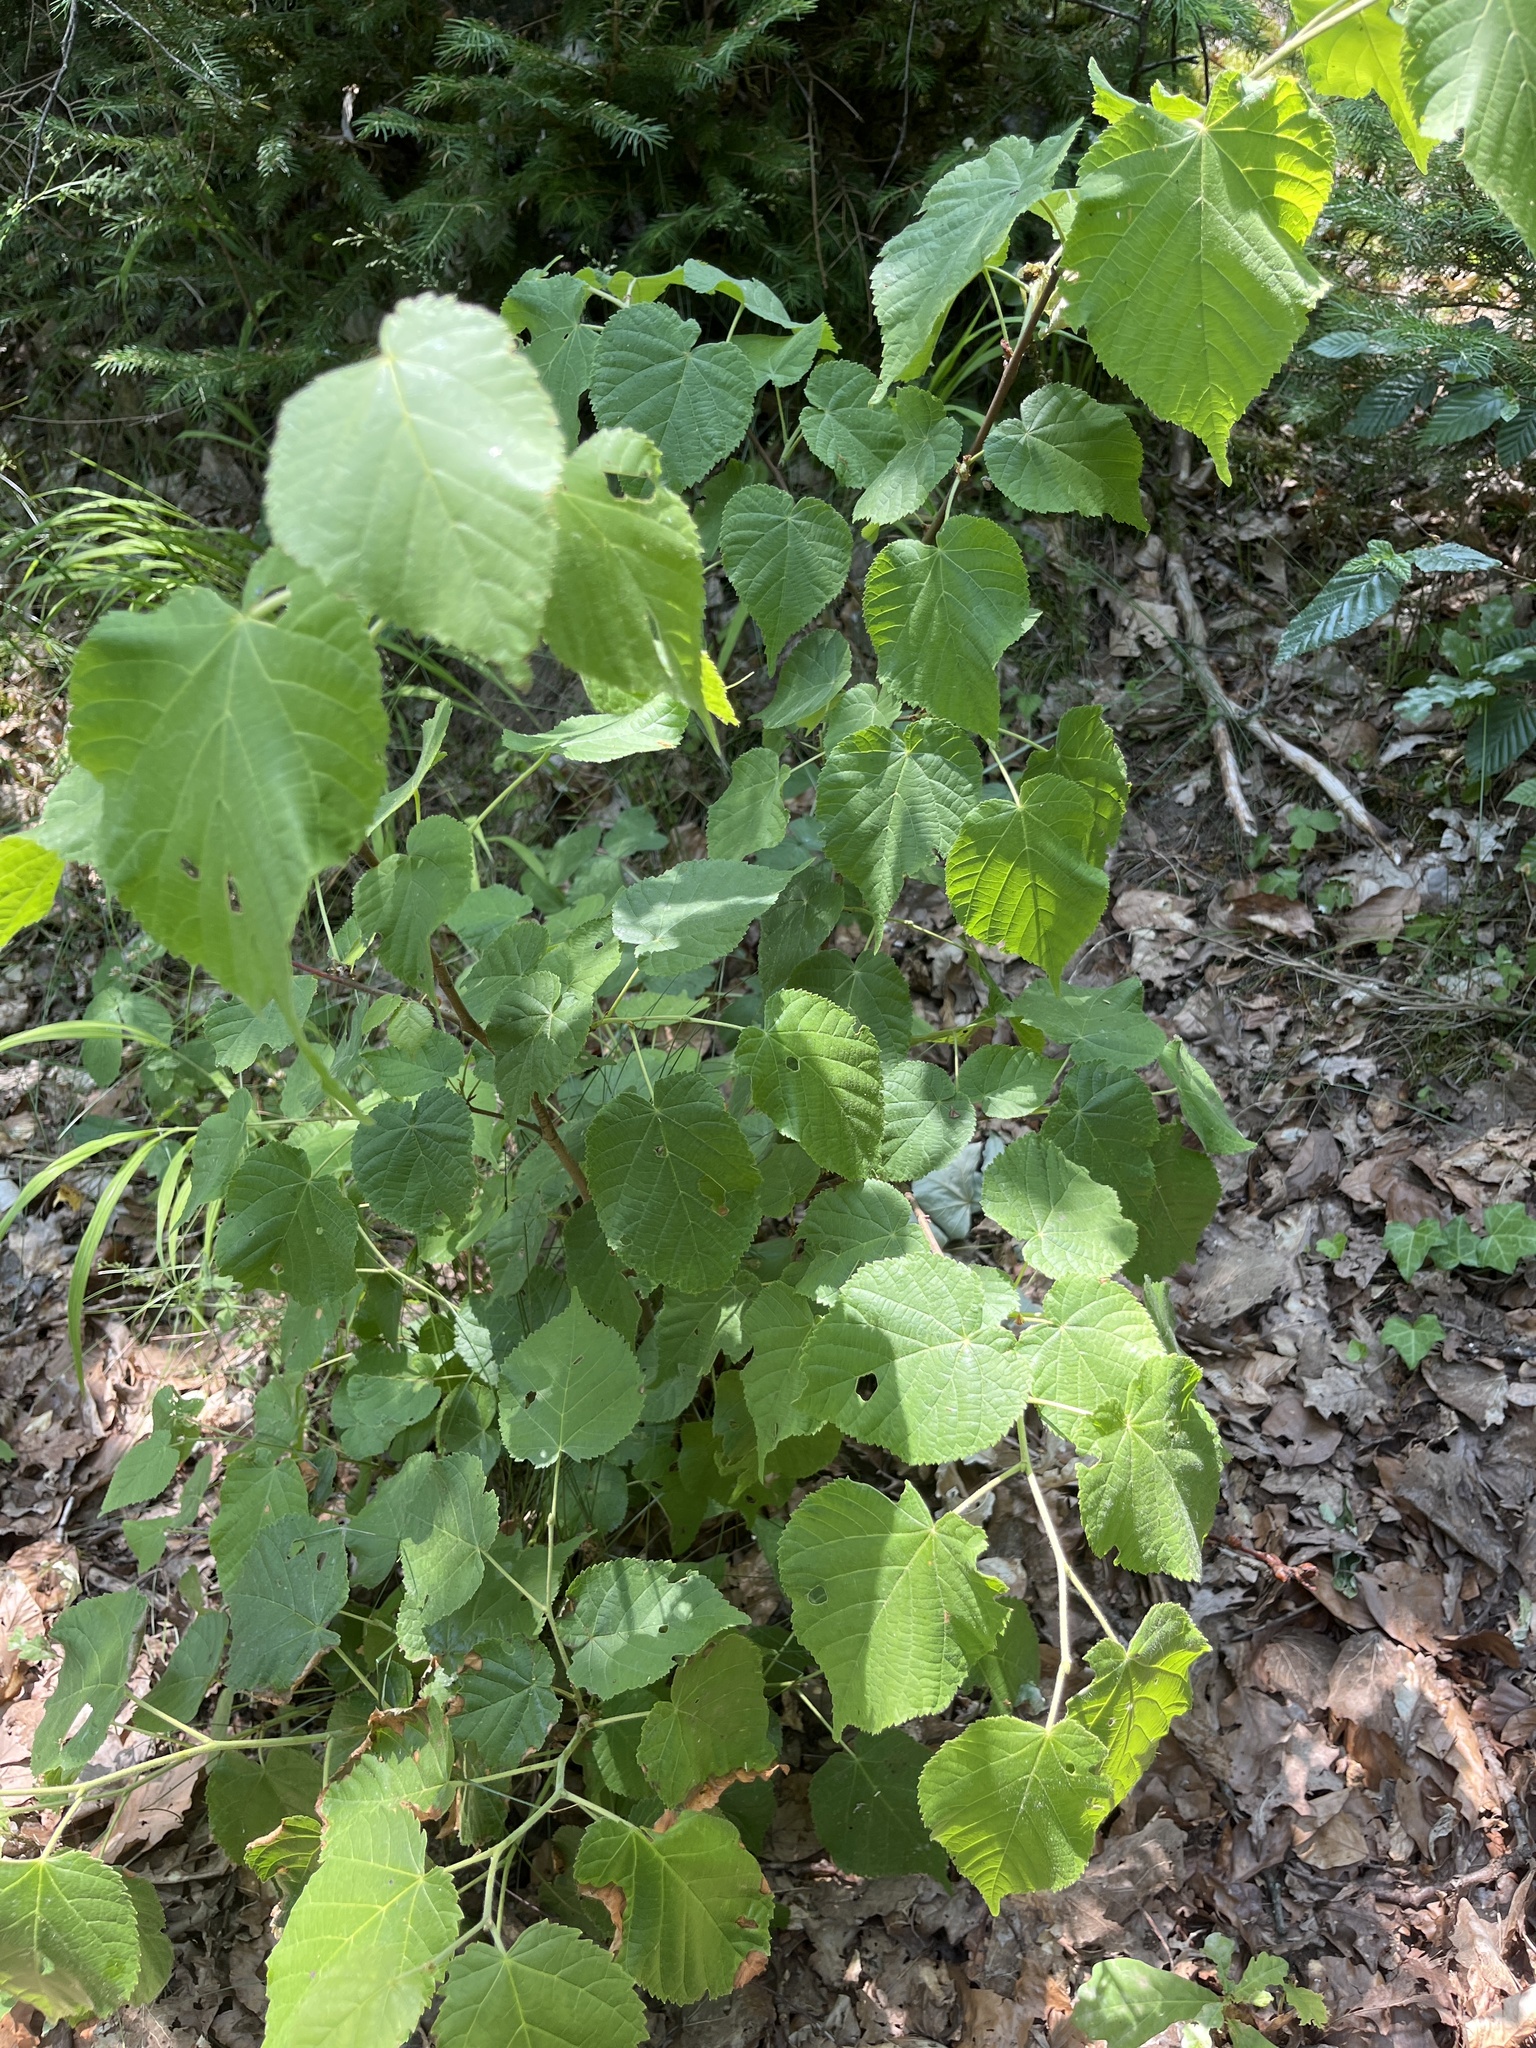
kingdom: Plantae
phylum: Tracheophyta
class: Magnoliopsida
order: Malvales
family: Malvaceae
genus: Tilia
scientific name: Tilia platyphyllos
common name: Large-leaved lime
